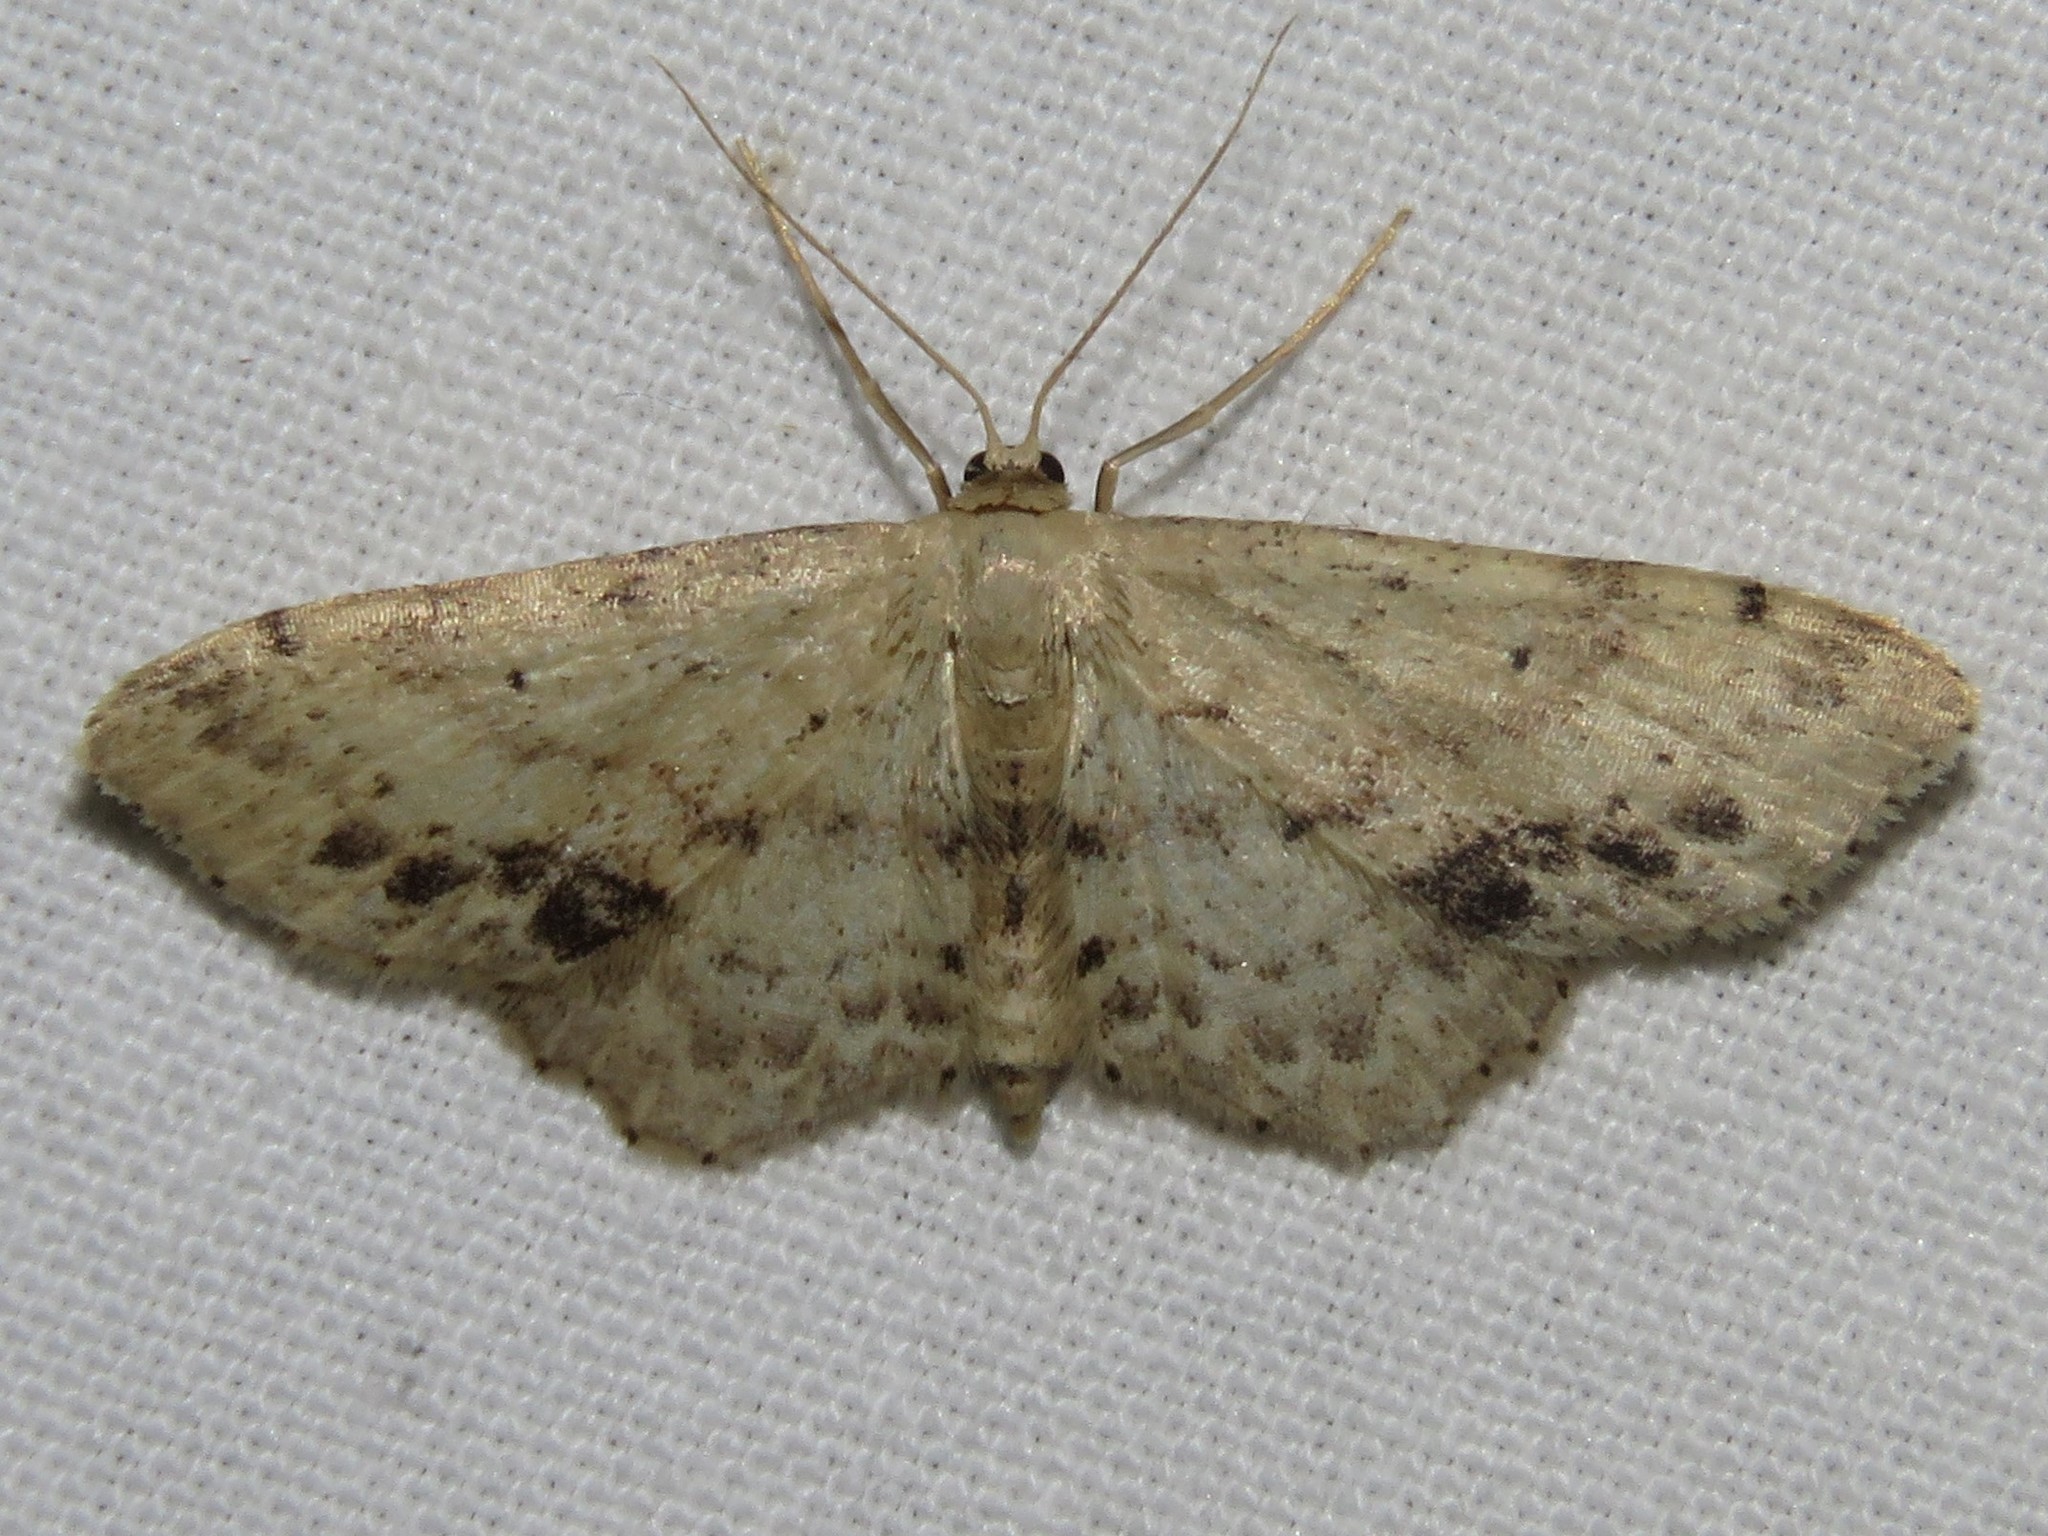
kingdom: Animalia
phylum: Arthropoda
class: Insecta
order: Lepidoptera
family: Geometridae
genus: Idaea
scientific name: Idaea dimidiata
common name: Single-dotted wave
